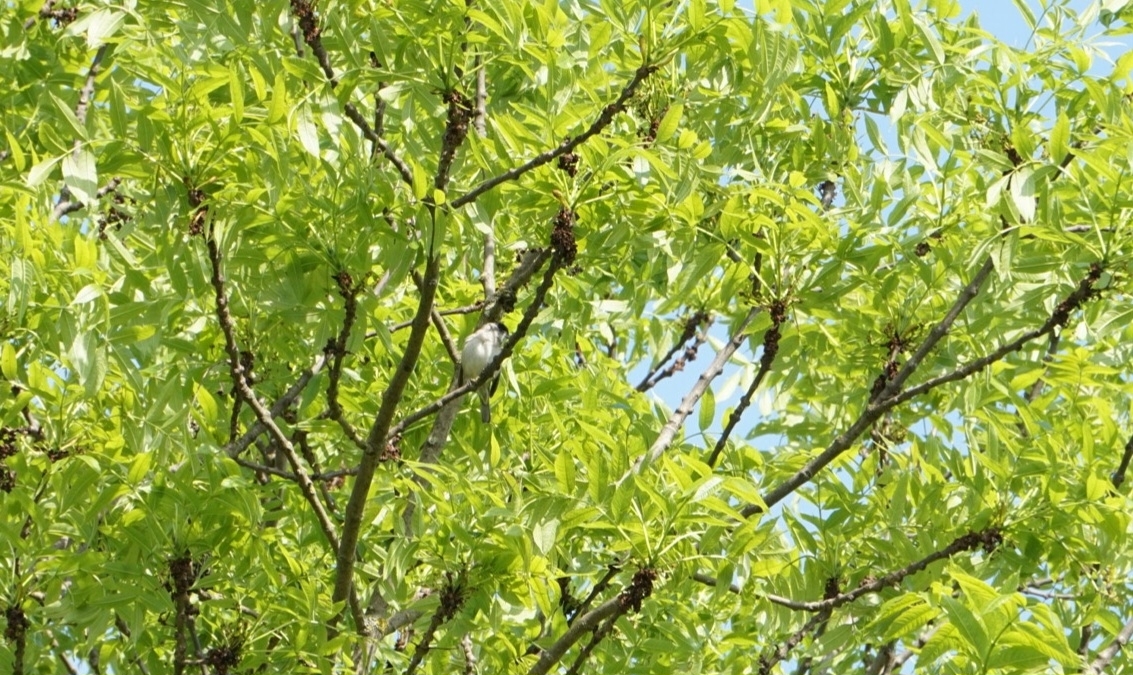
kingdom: Animalia
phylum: Chordata
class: Aves
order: Passeriformes
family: Sylviidae
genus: Sylvia
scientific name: Sylvia atricapilla
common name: Eurasian blackcap
